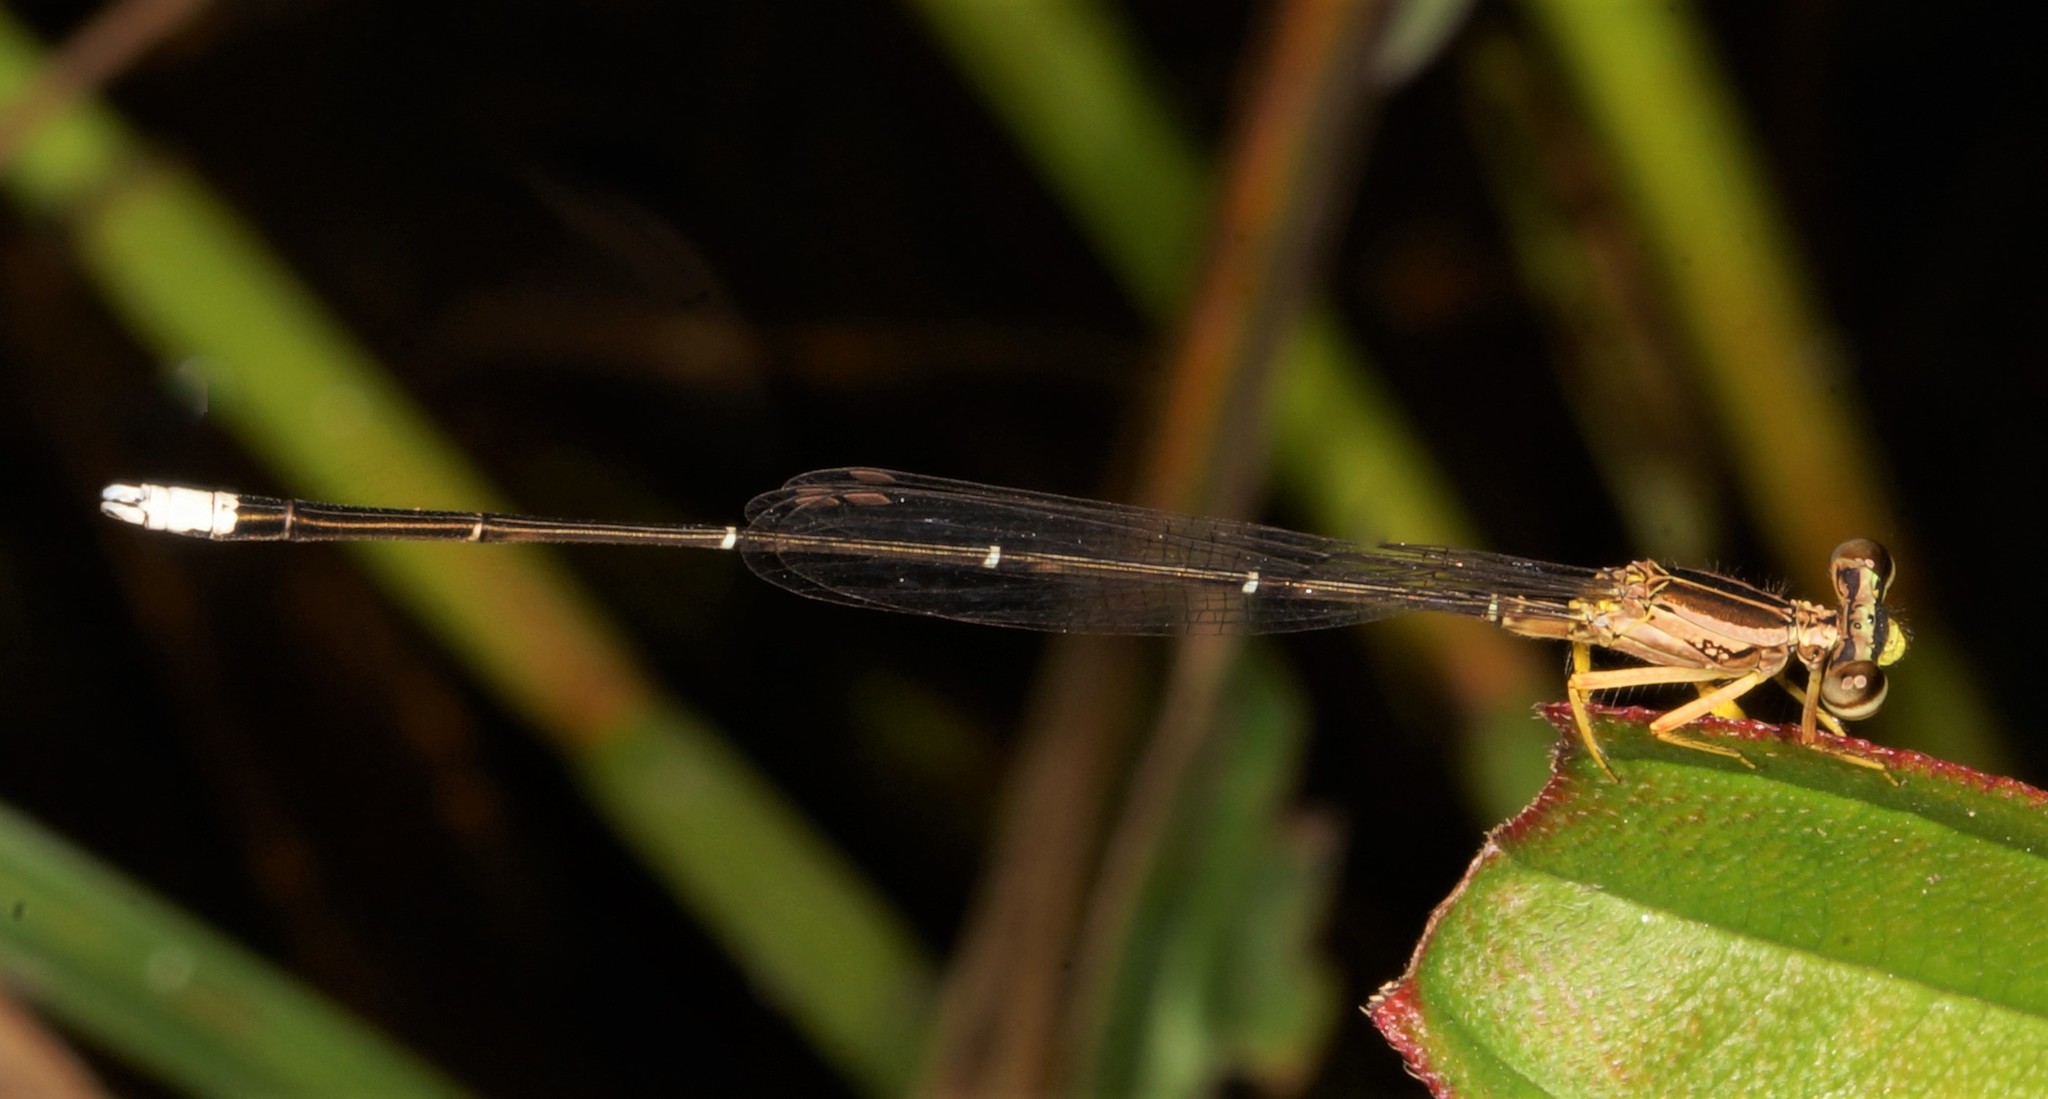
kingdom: Animalia
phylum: Arthropoda
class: Insecta
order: Odonata
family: Platycnemididae
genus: Copera
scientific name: Copera marginipes
